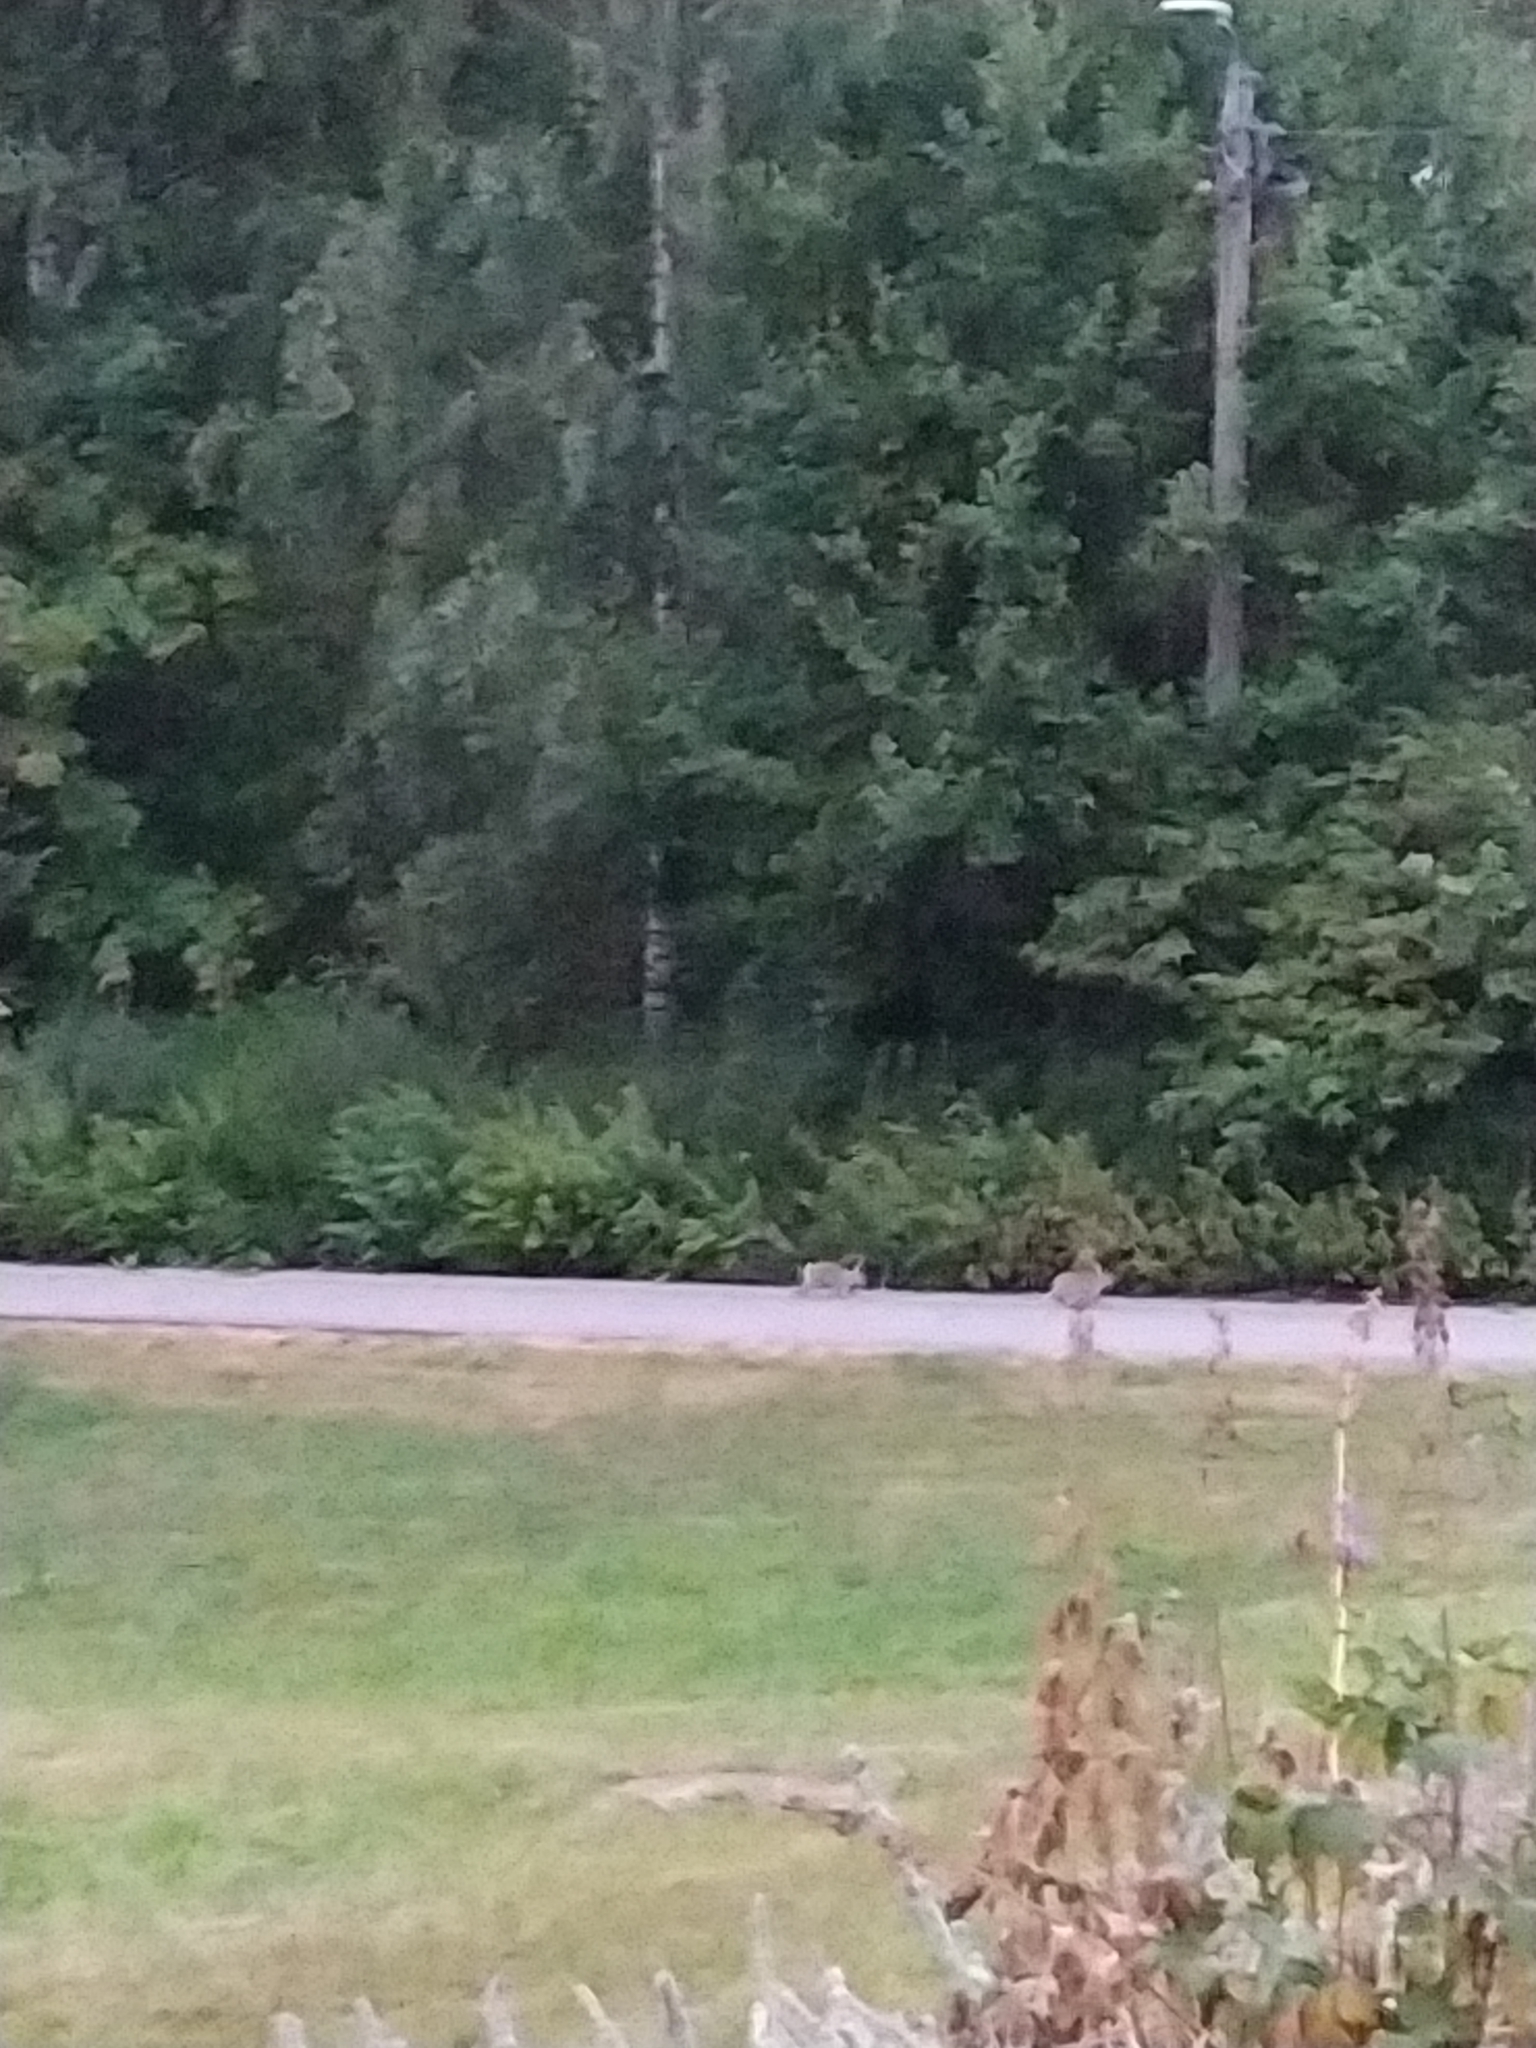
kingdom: Animalia
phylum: Chordata
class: Mammalia
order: Lagomorpha
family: Leporidae
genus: Oryctolagus
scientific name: Oryctolagus cuniculus
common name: European rabbit
